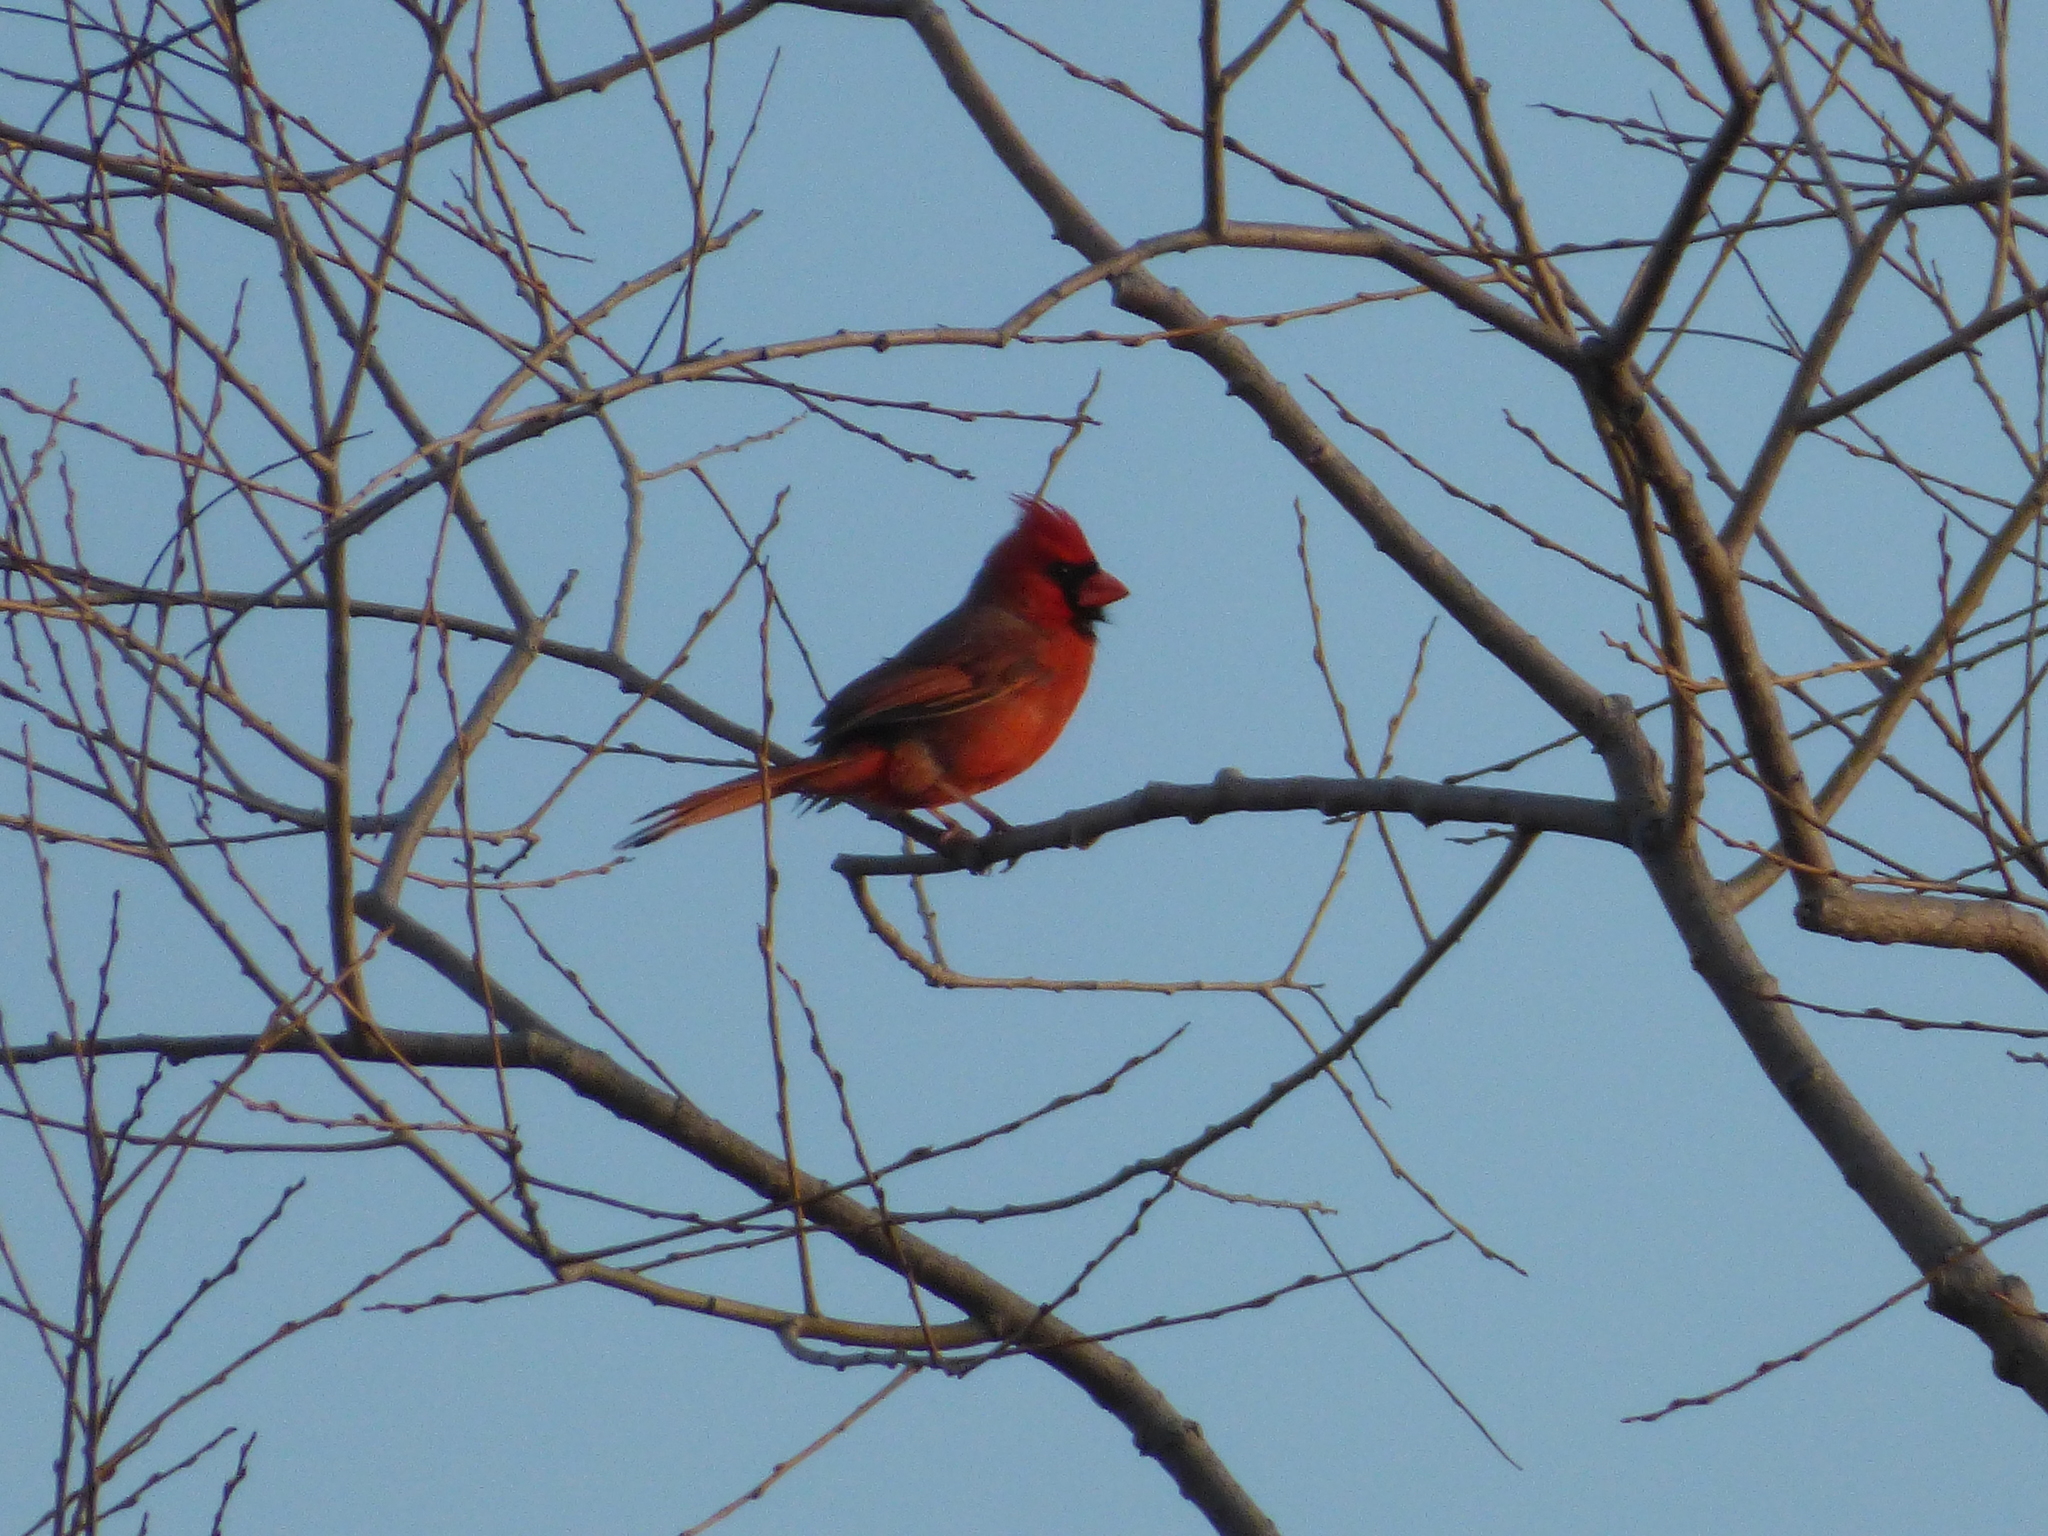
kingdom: Animalia
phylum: Chordata
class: Aves
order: Passeriformes
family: Cardinalidae
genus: Cardinalis
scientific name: Cardinalis cardinalis
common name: Northern cardinal
